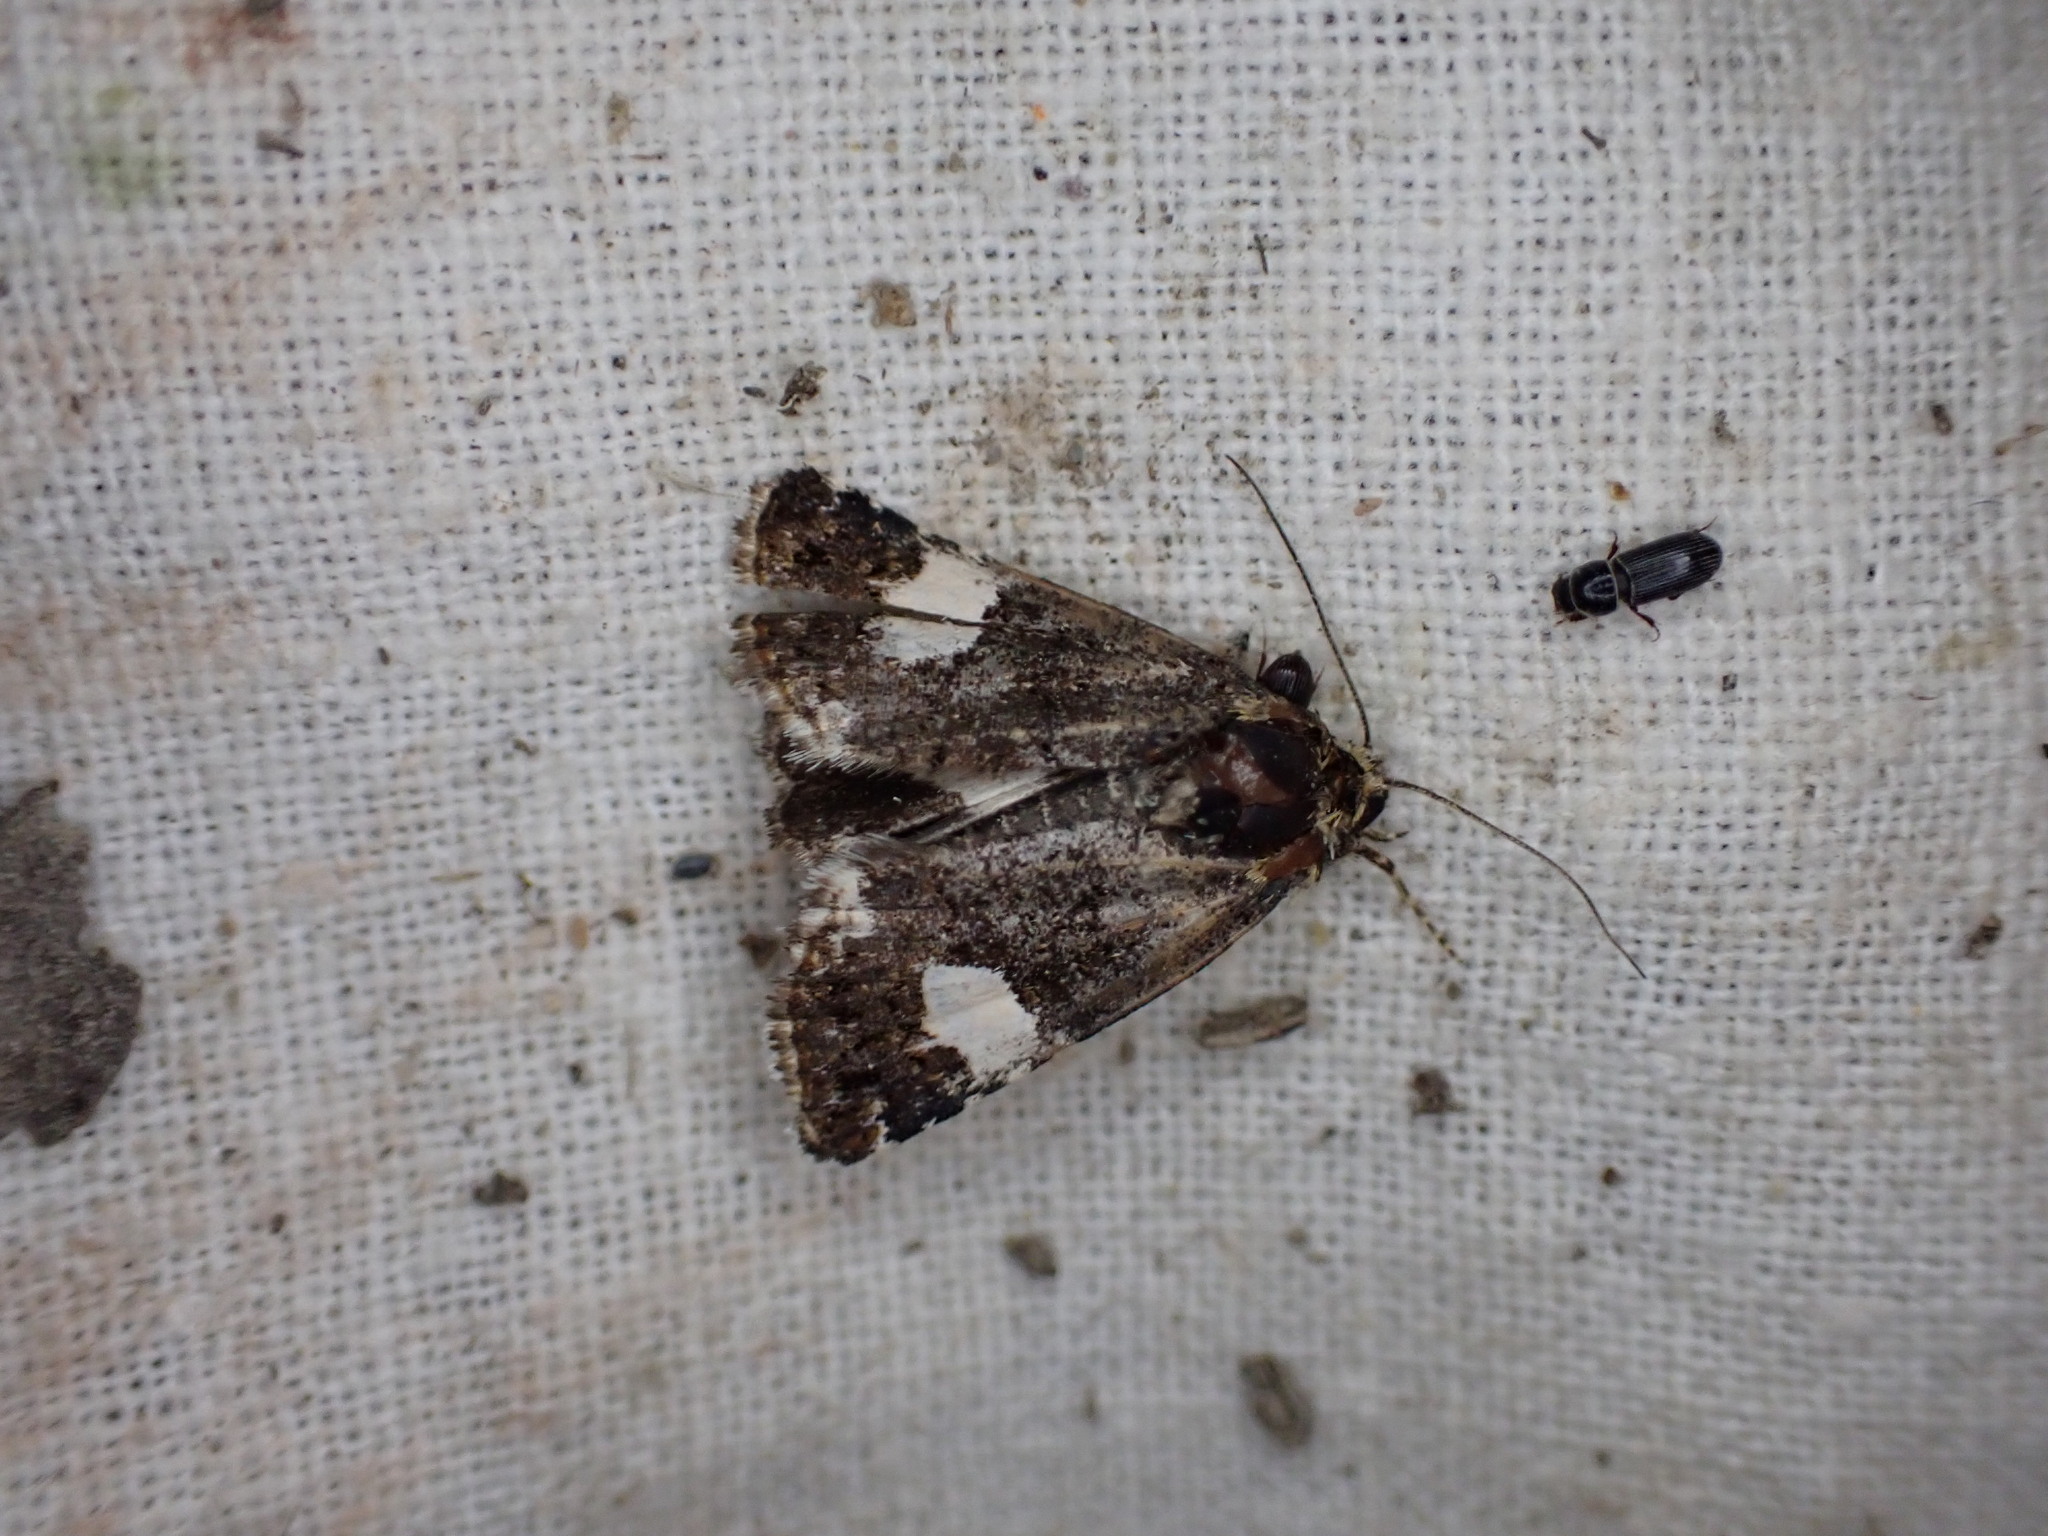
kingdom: Animalia
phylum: Arthropoda
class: Insecta
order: Lepidoptera
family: Erebidae
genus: Tyta
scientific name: Tyta luctuosa
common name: Four-spotted
